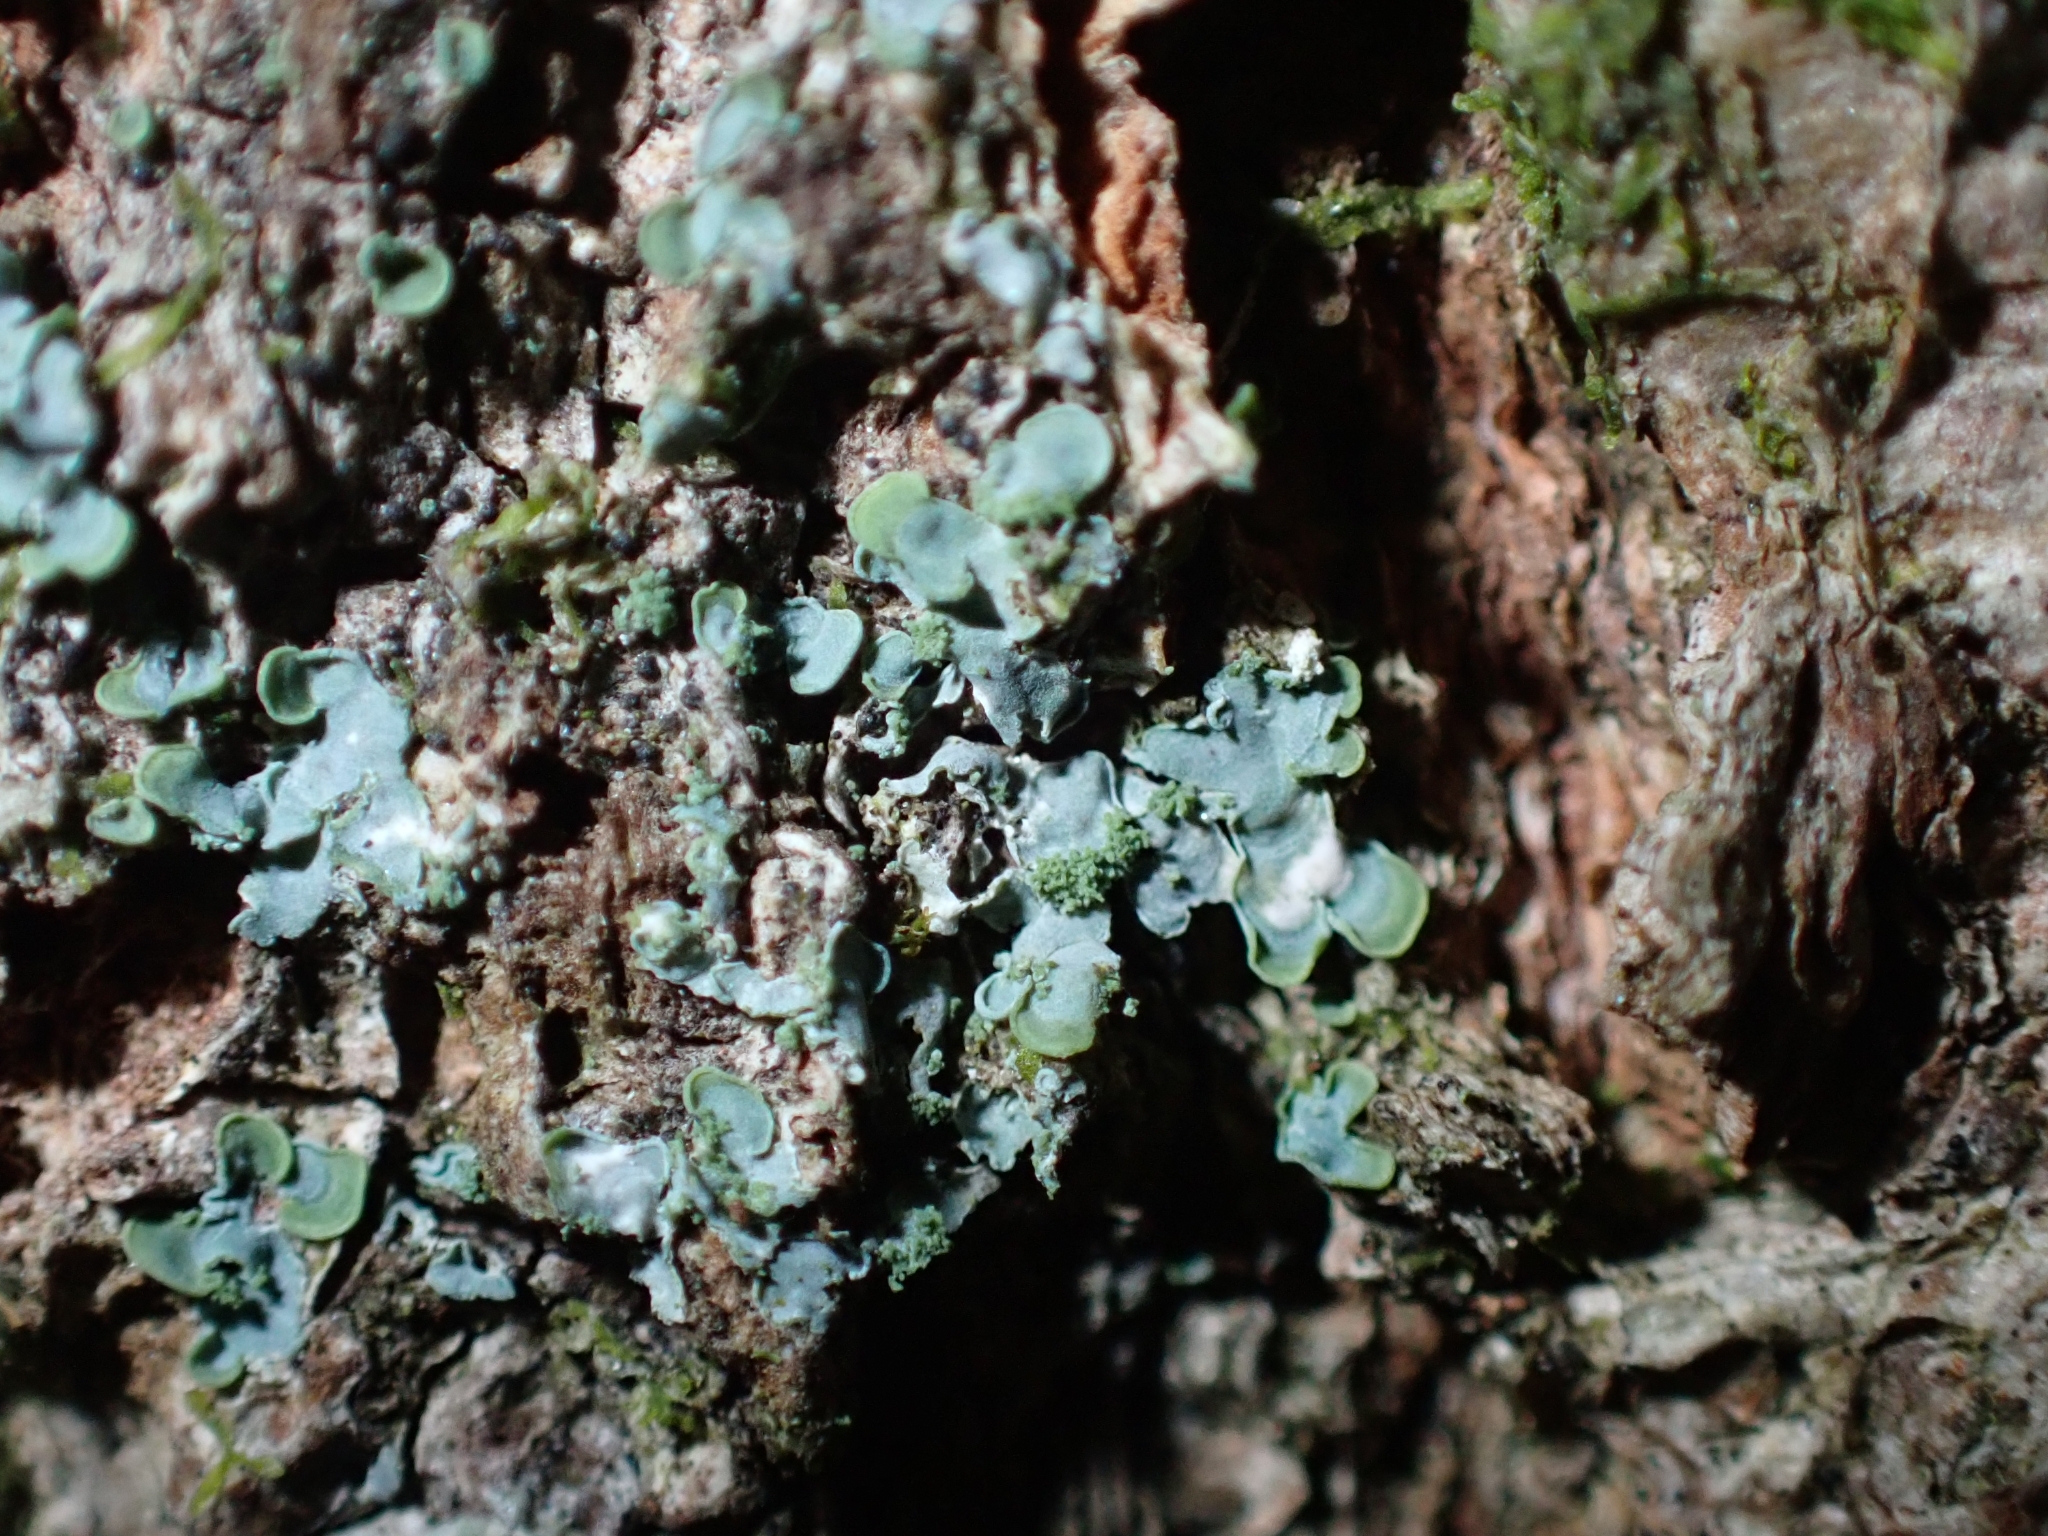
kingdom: Fungi
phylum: Ascomycota
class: Eurotiomycetes
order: Verrucariales
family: Verrucariaceae
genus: Normandina
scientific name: Normandina pulchella
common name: Elf ears lichen
